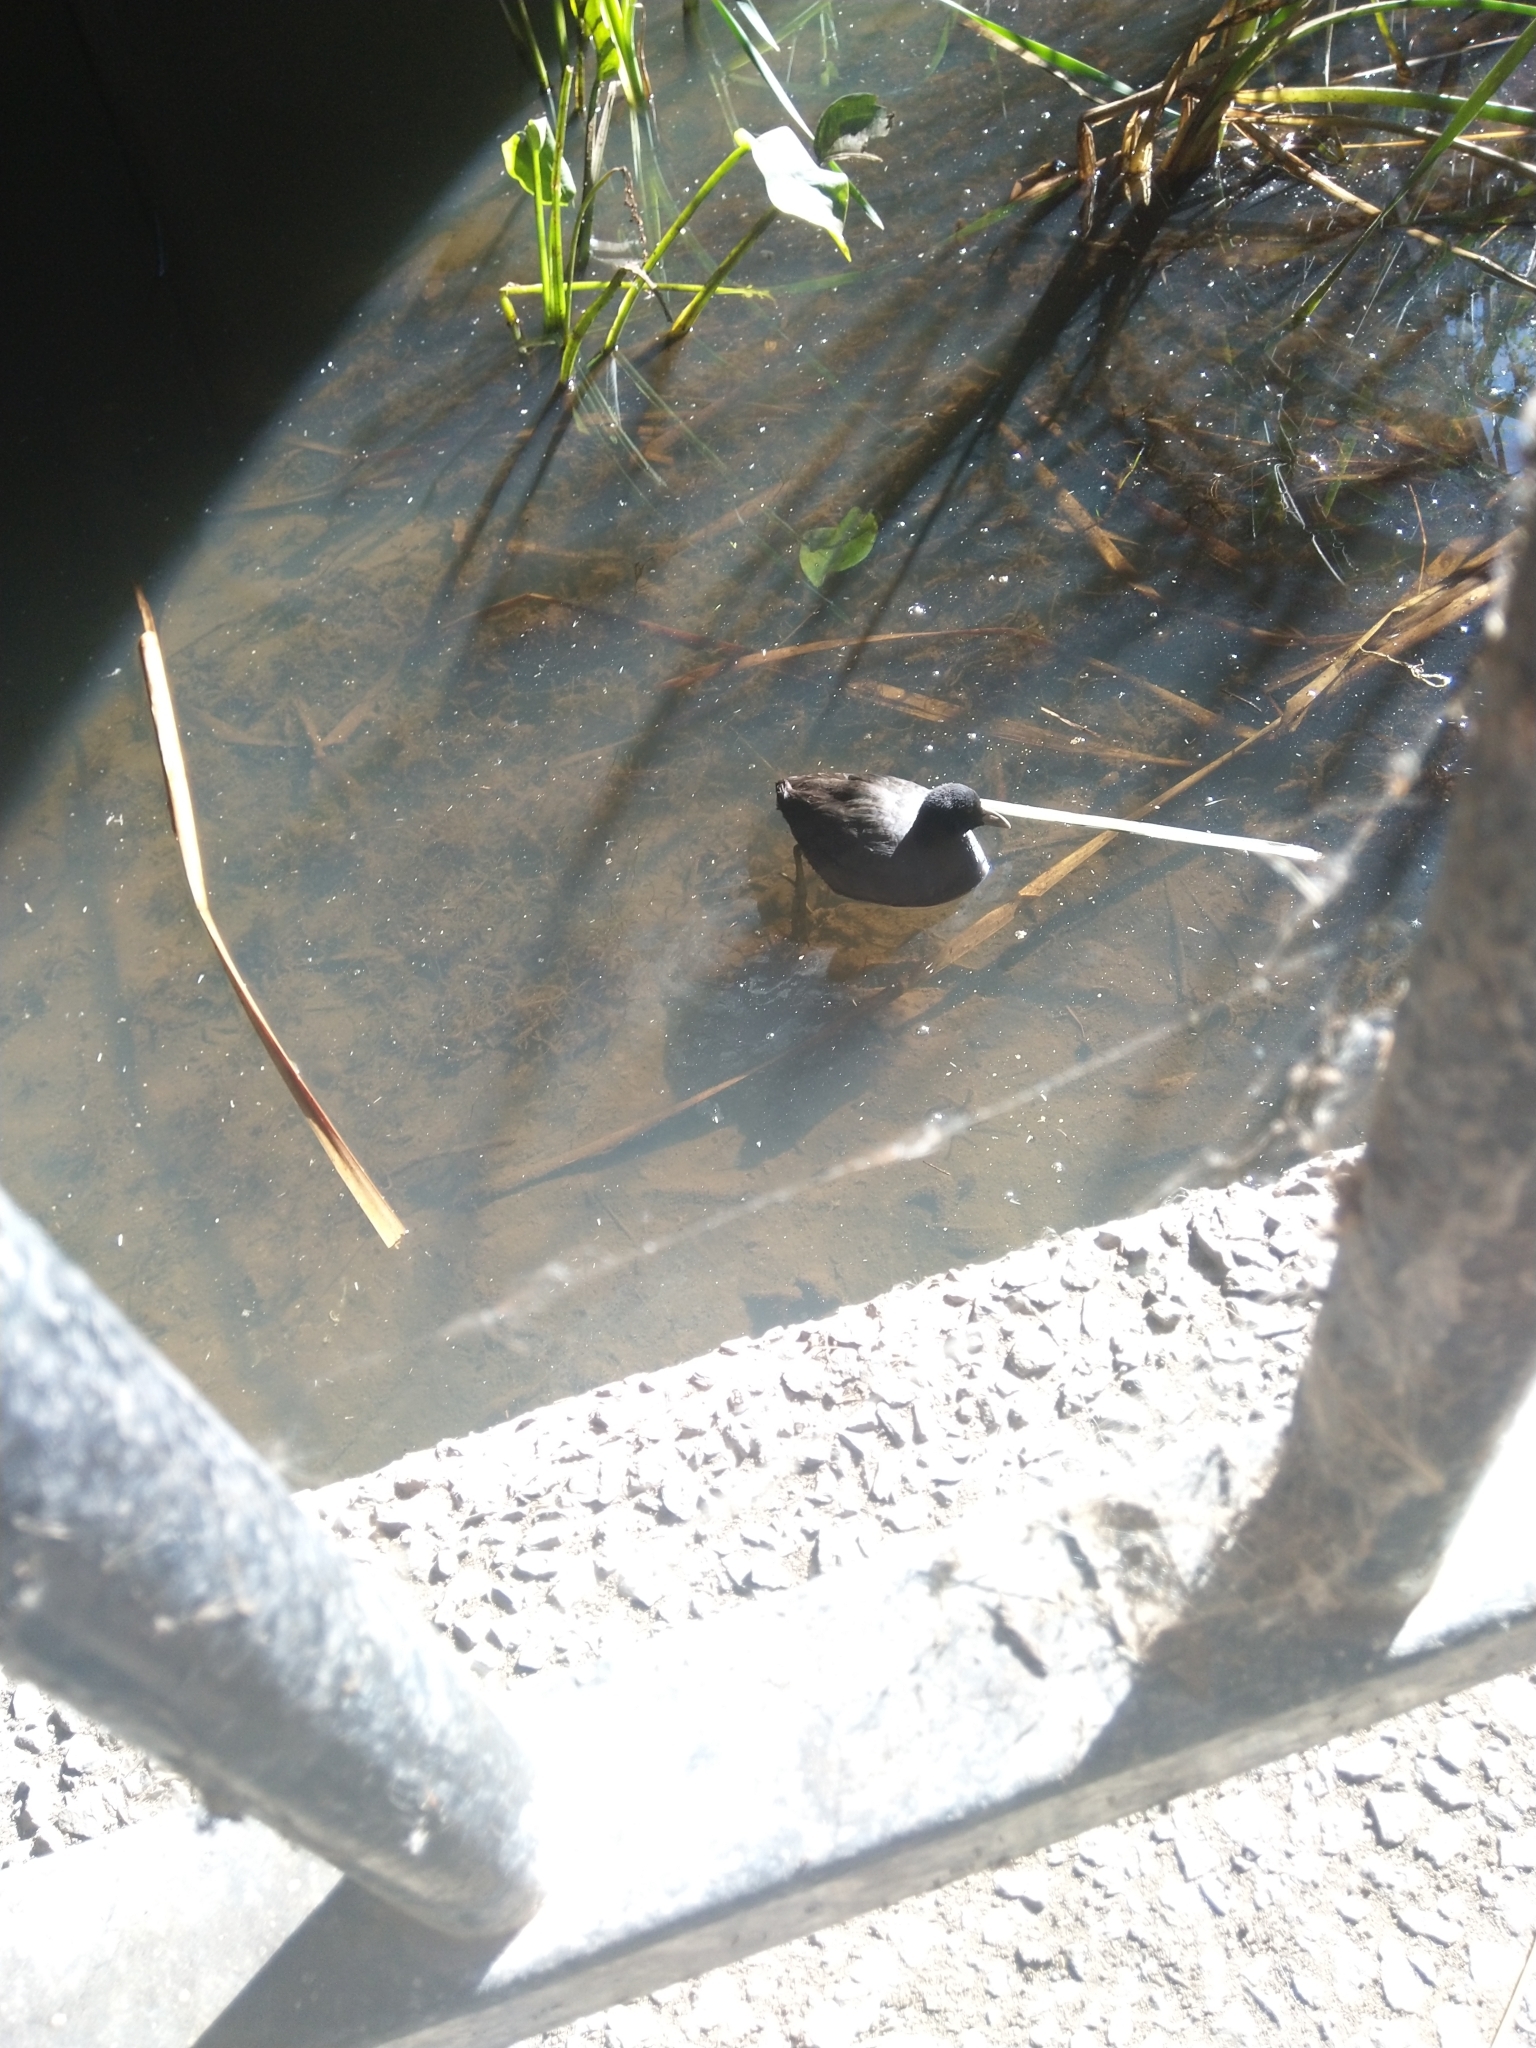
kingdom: Animalia
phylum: Chordata
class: Aves
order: Gruiformes
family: Rallidae
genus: Fulica
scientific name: Fulica atra
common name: Eurasian coot
